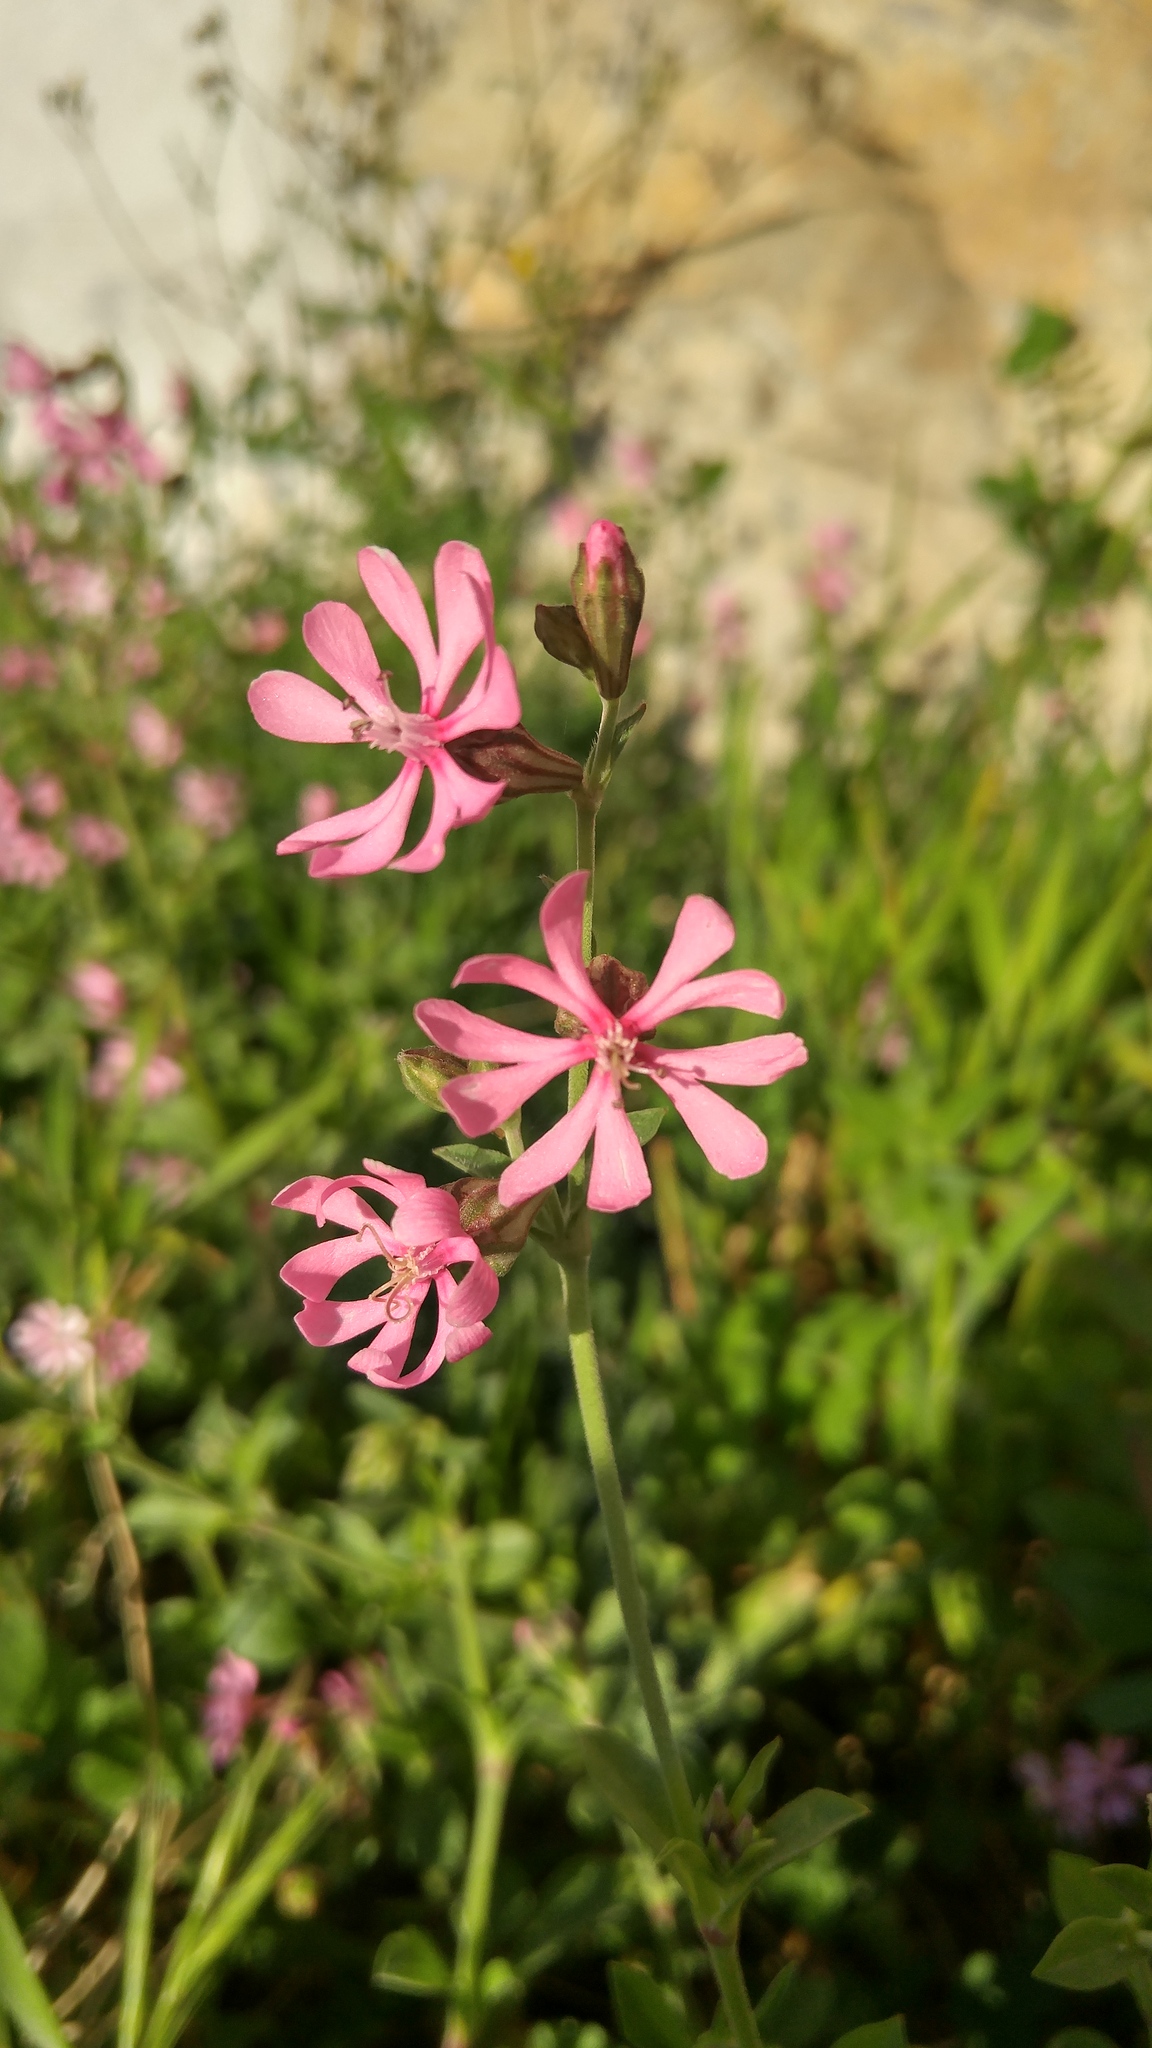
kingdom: Plantae
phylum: Tracheophyta
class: Magnoliopsida
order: Caryophyllales
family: Caryophyllaceae
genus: Silene
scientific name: Silene colorata
